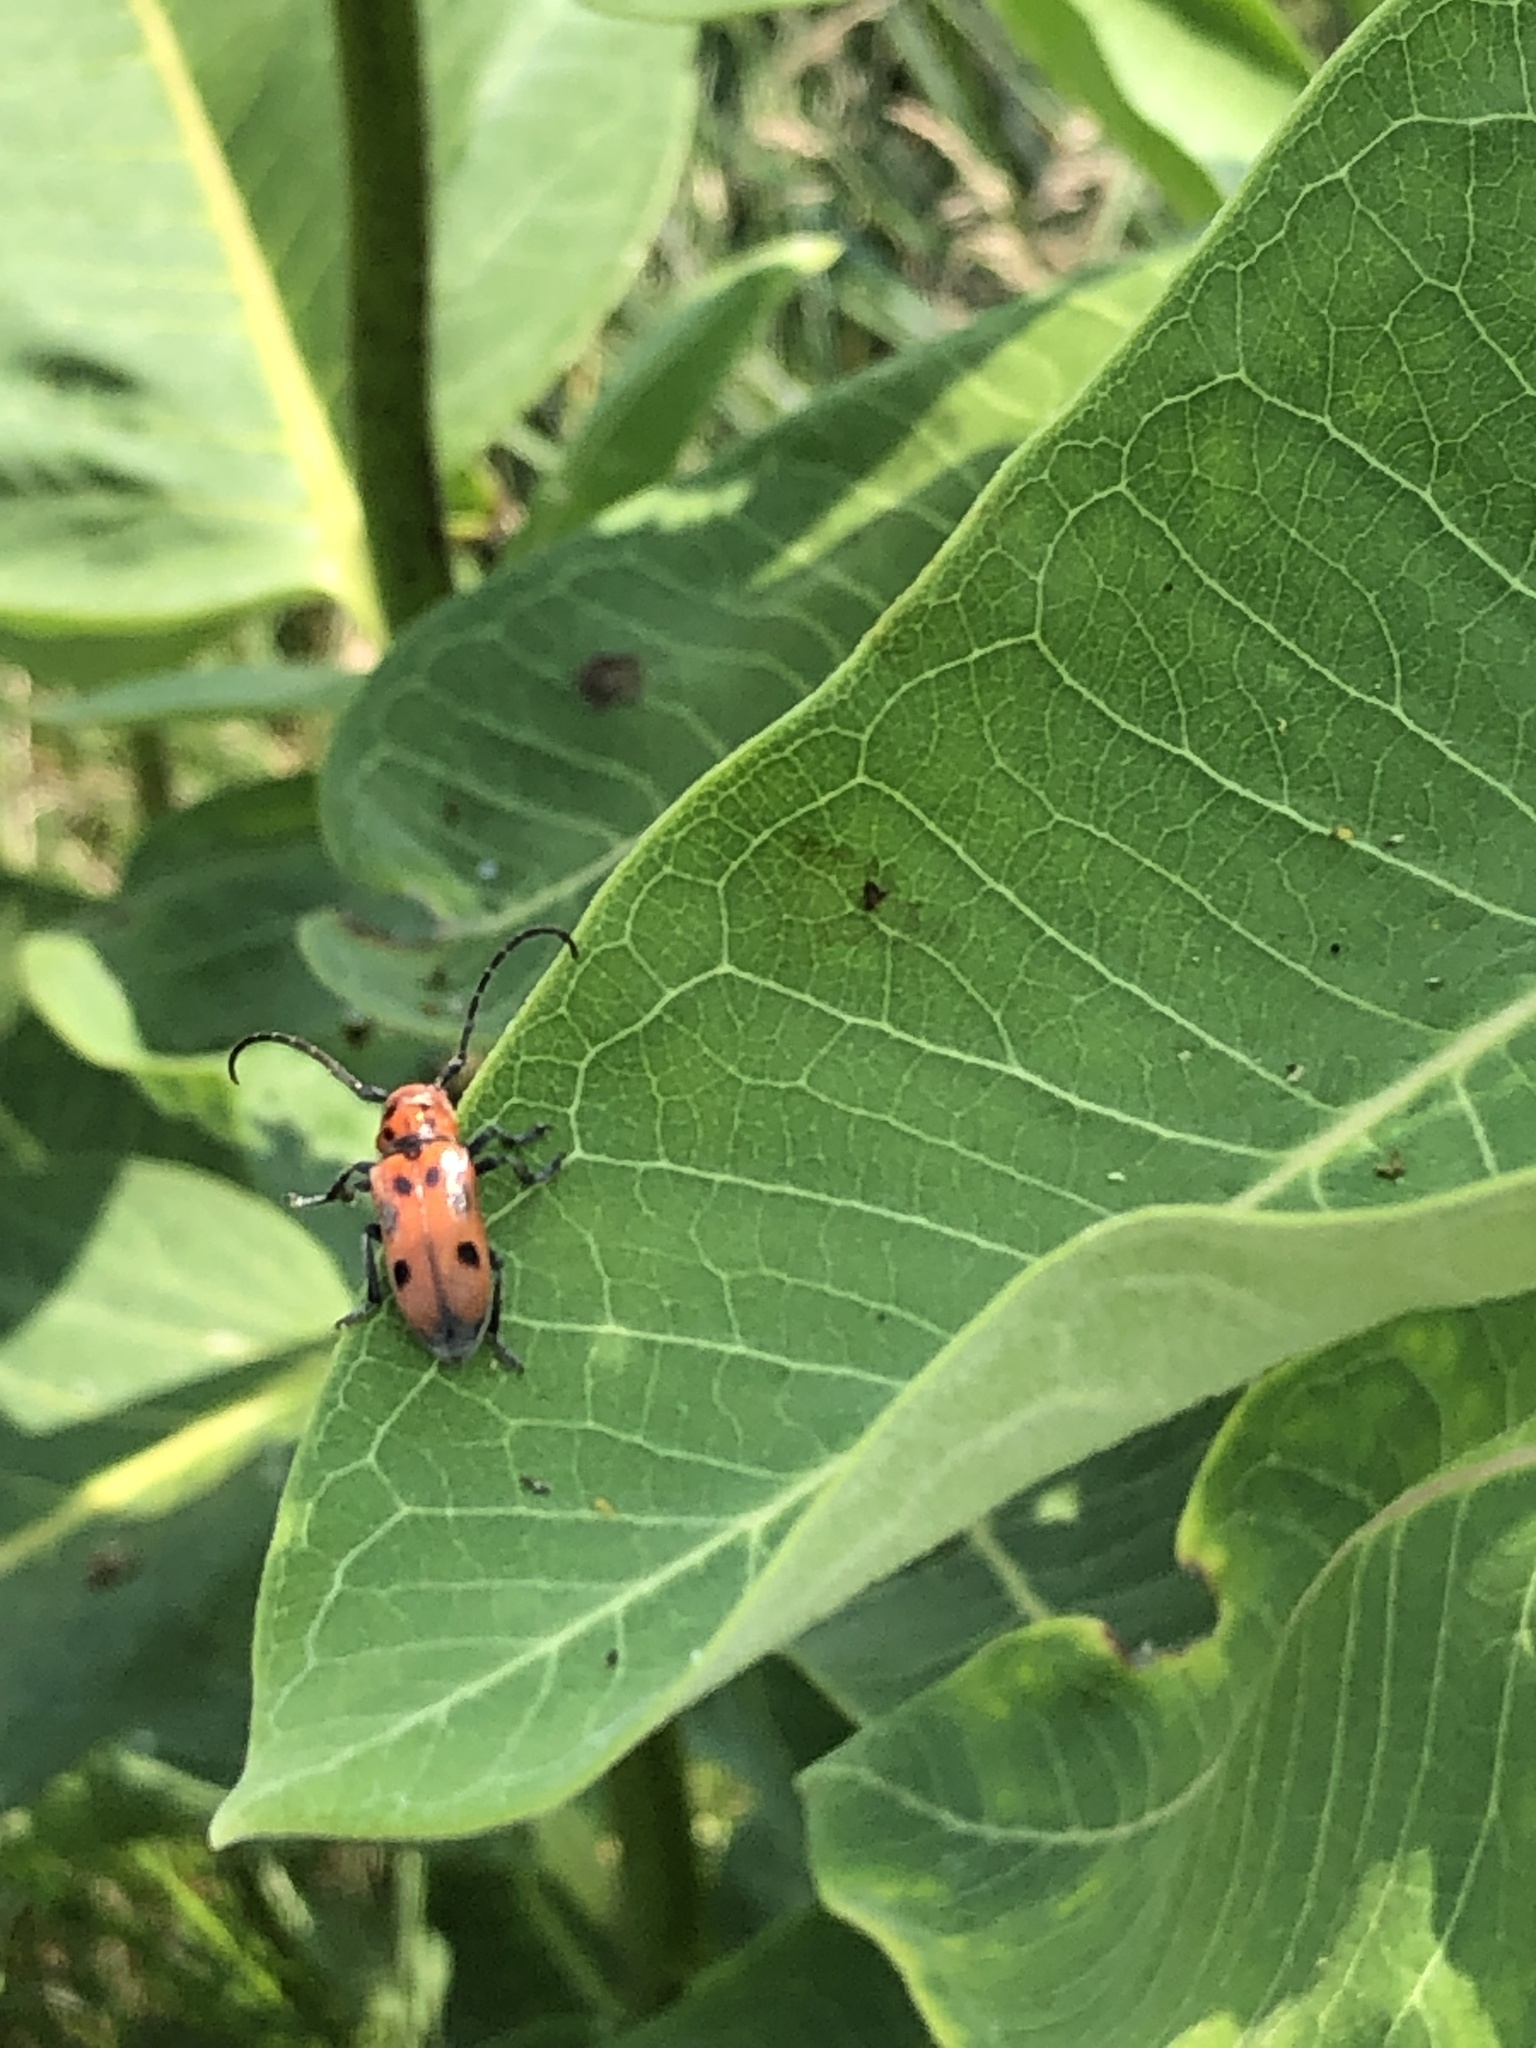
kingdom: Animalia
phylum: Arthropoda
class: Insecta
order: Coleoptera
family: Cerambycidae
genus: Tetraopes
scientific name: Tetraopes tetrophthalmus
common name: Red milkweed beetle
